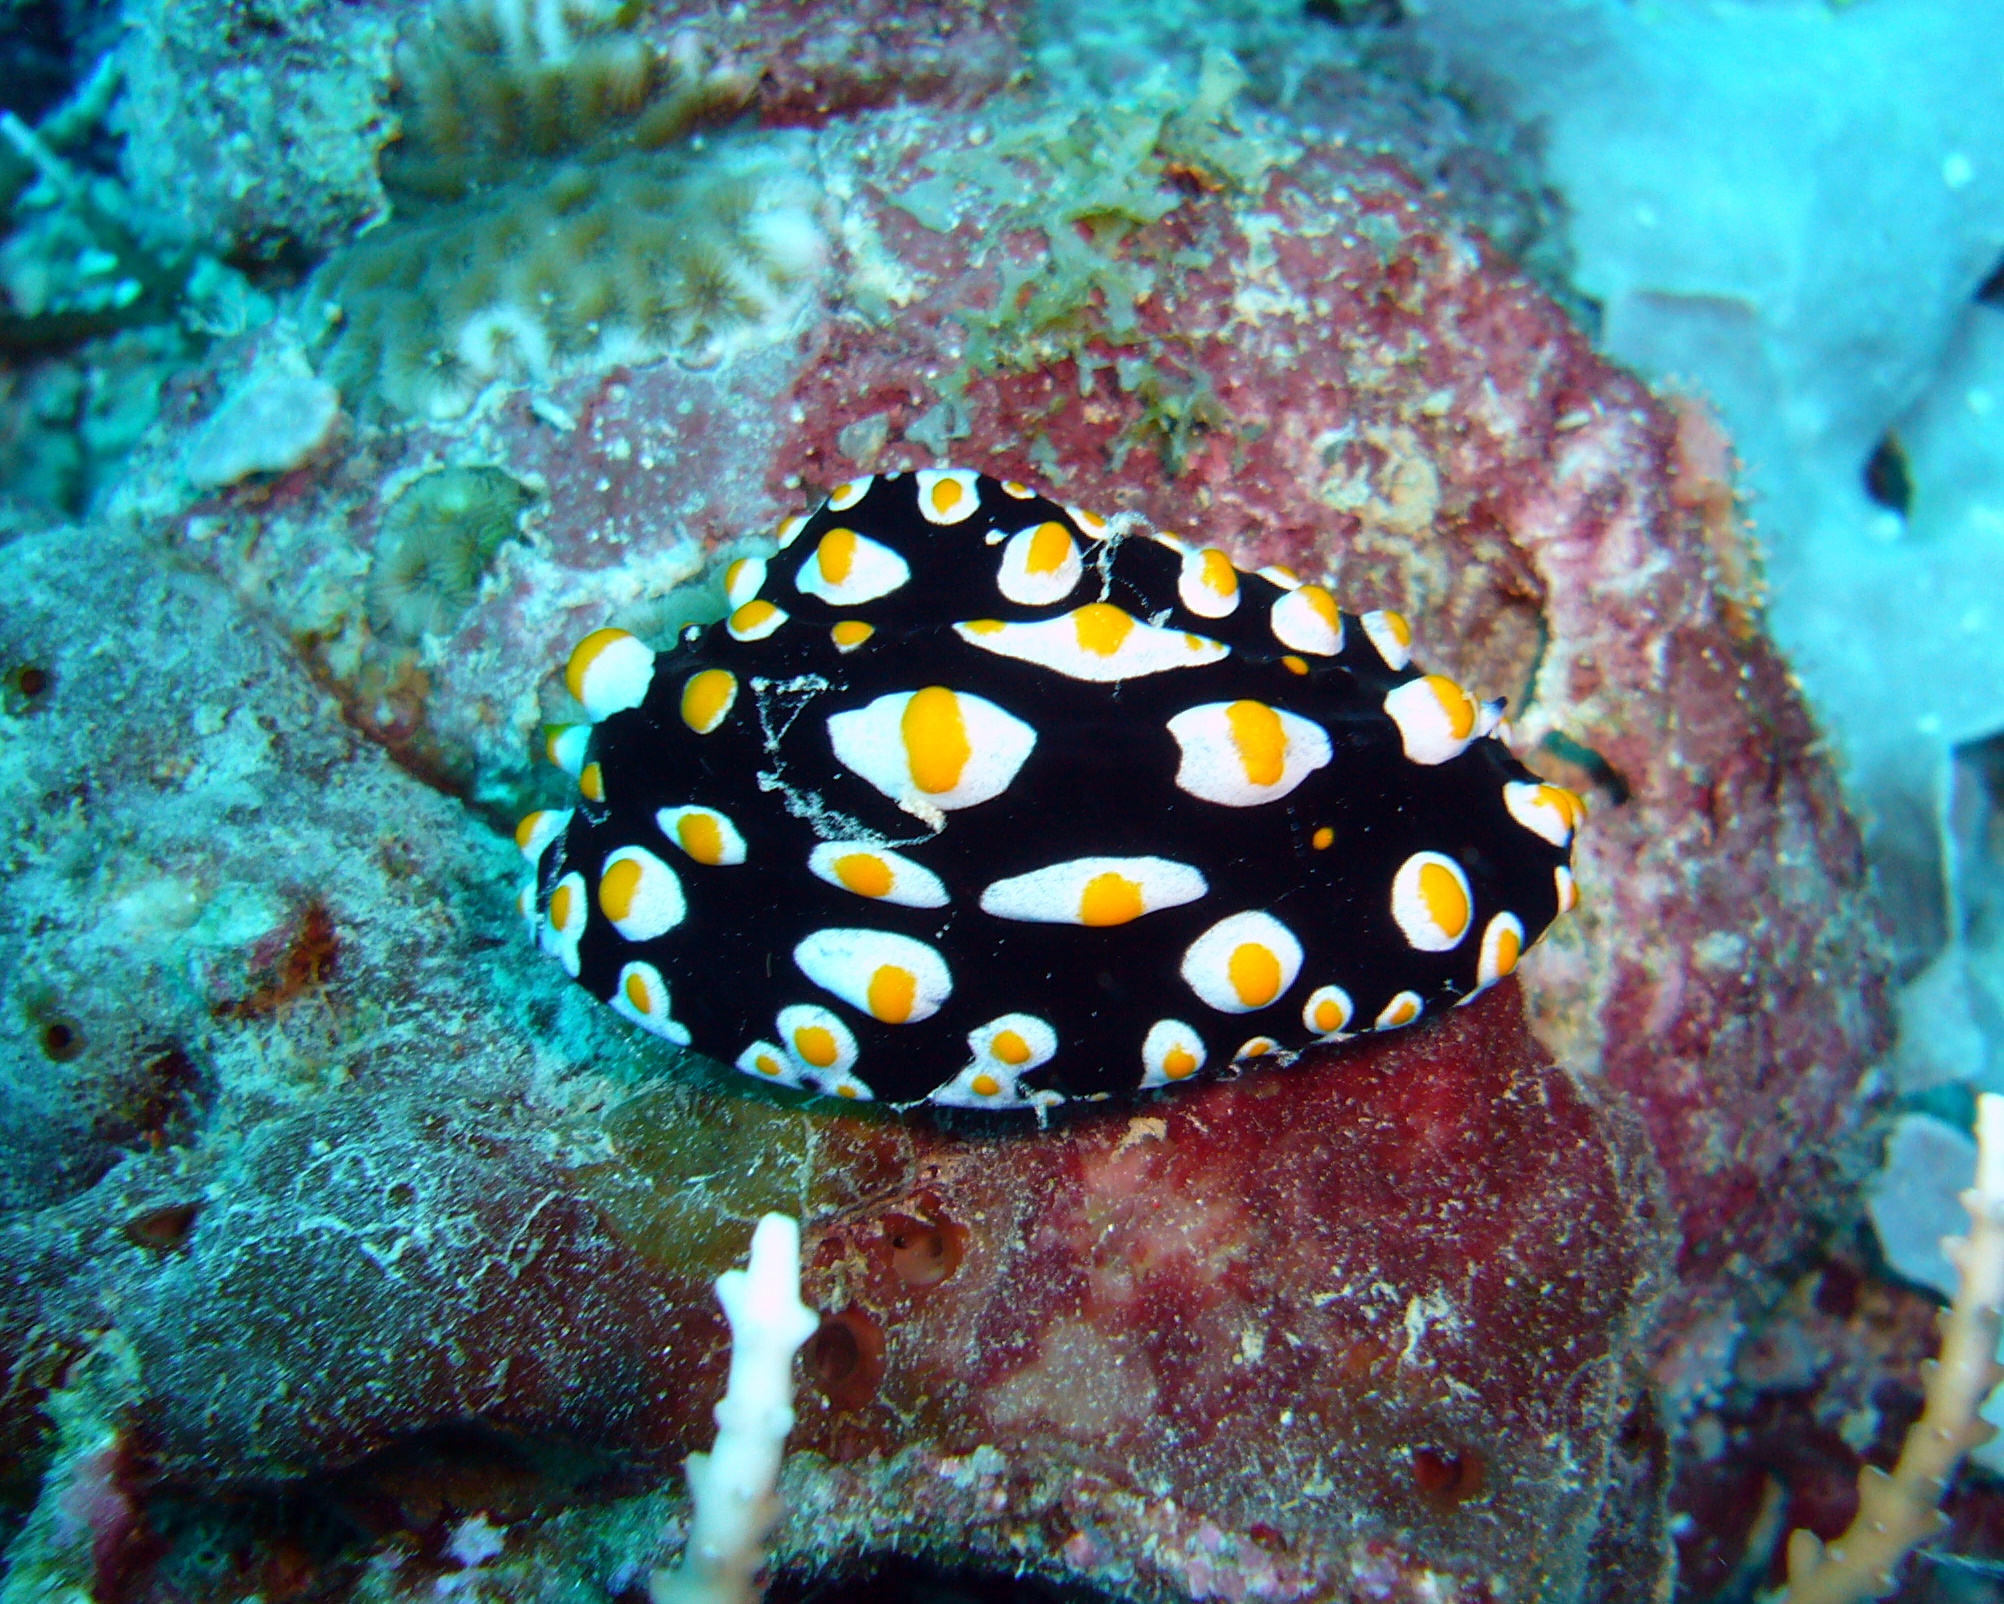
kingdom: Animalia
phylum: Mollusca
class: Gastropoda
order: Nudibranchia
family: Phyllidiidae
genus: Phyllidia
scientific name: Phyllidia madangensis
